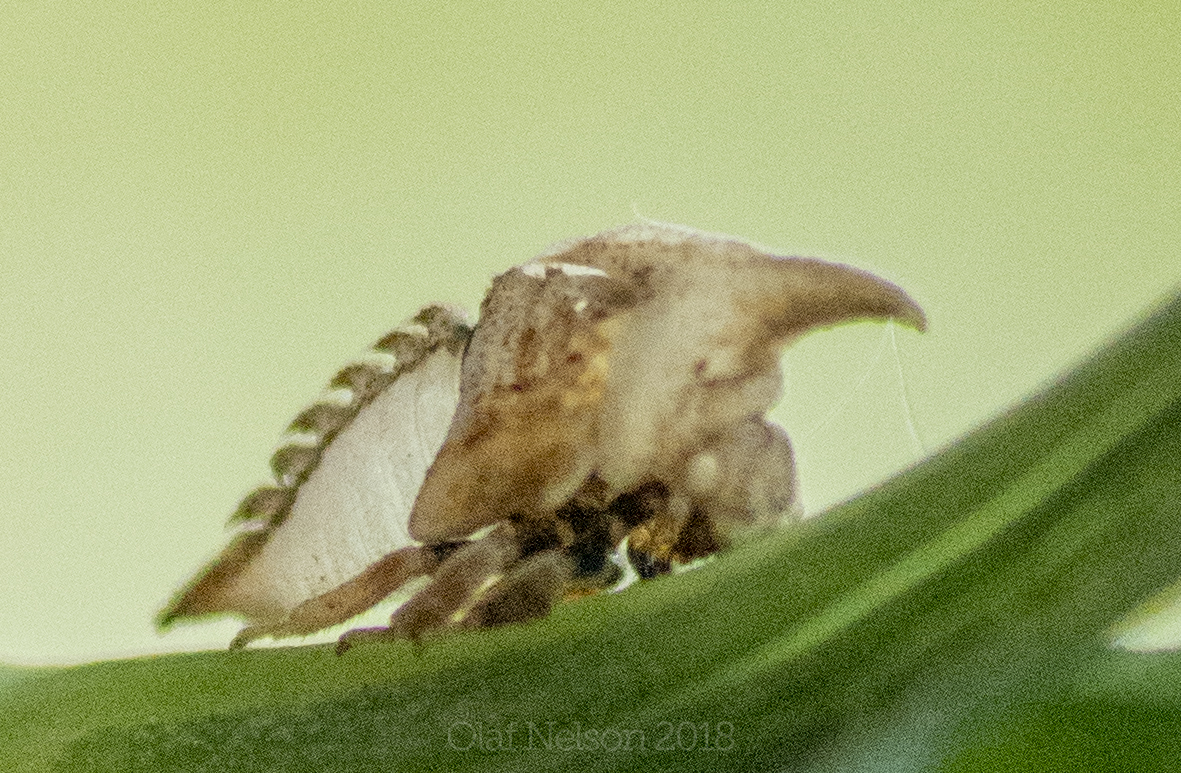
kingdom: Animalia
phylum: Arthropoda
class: Insecta
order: Hemiptera
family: Membracidae
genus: Enchenopa
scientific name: Enchenopa latipes
